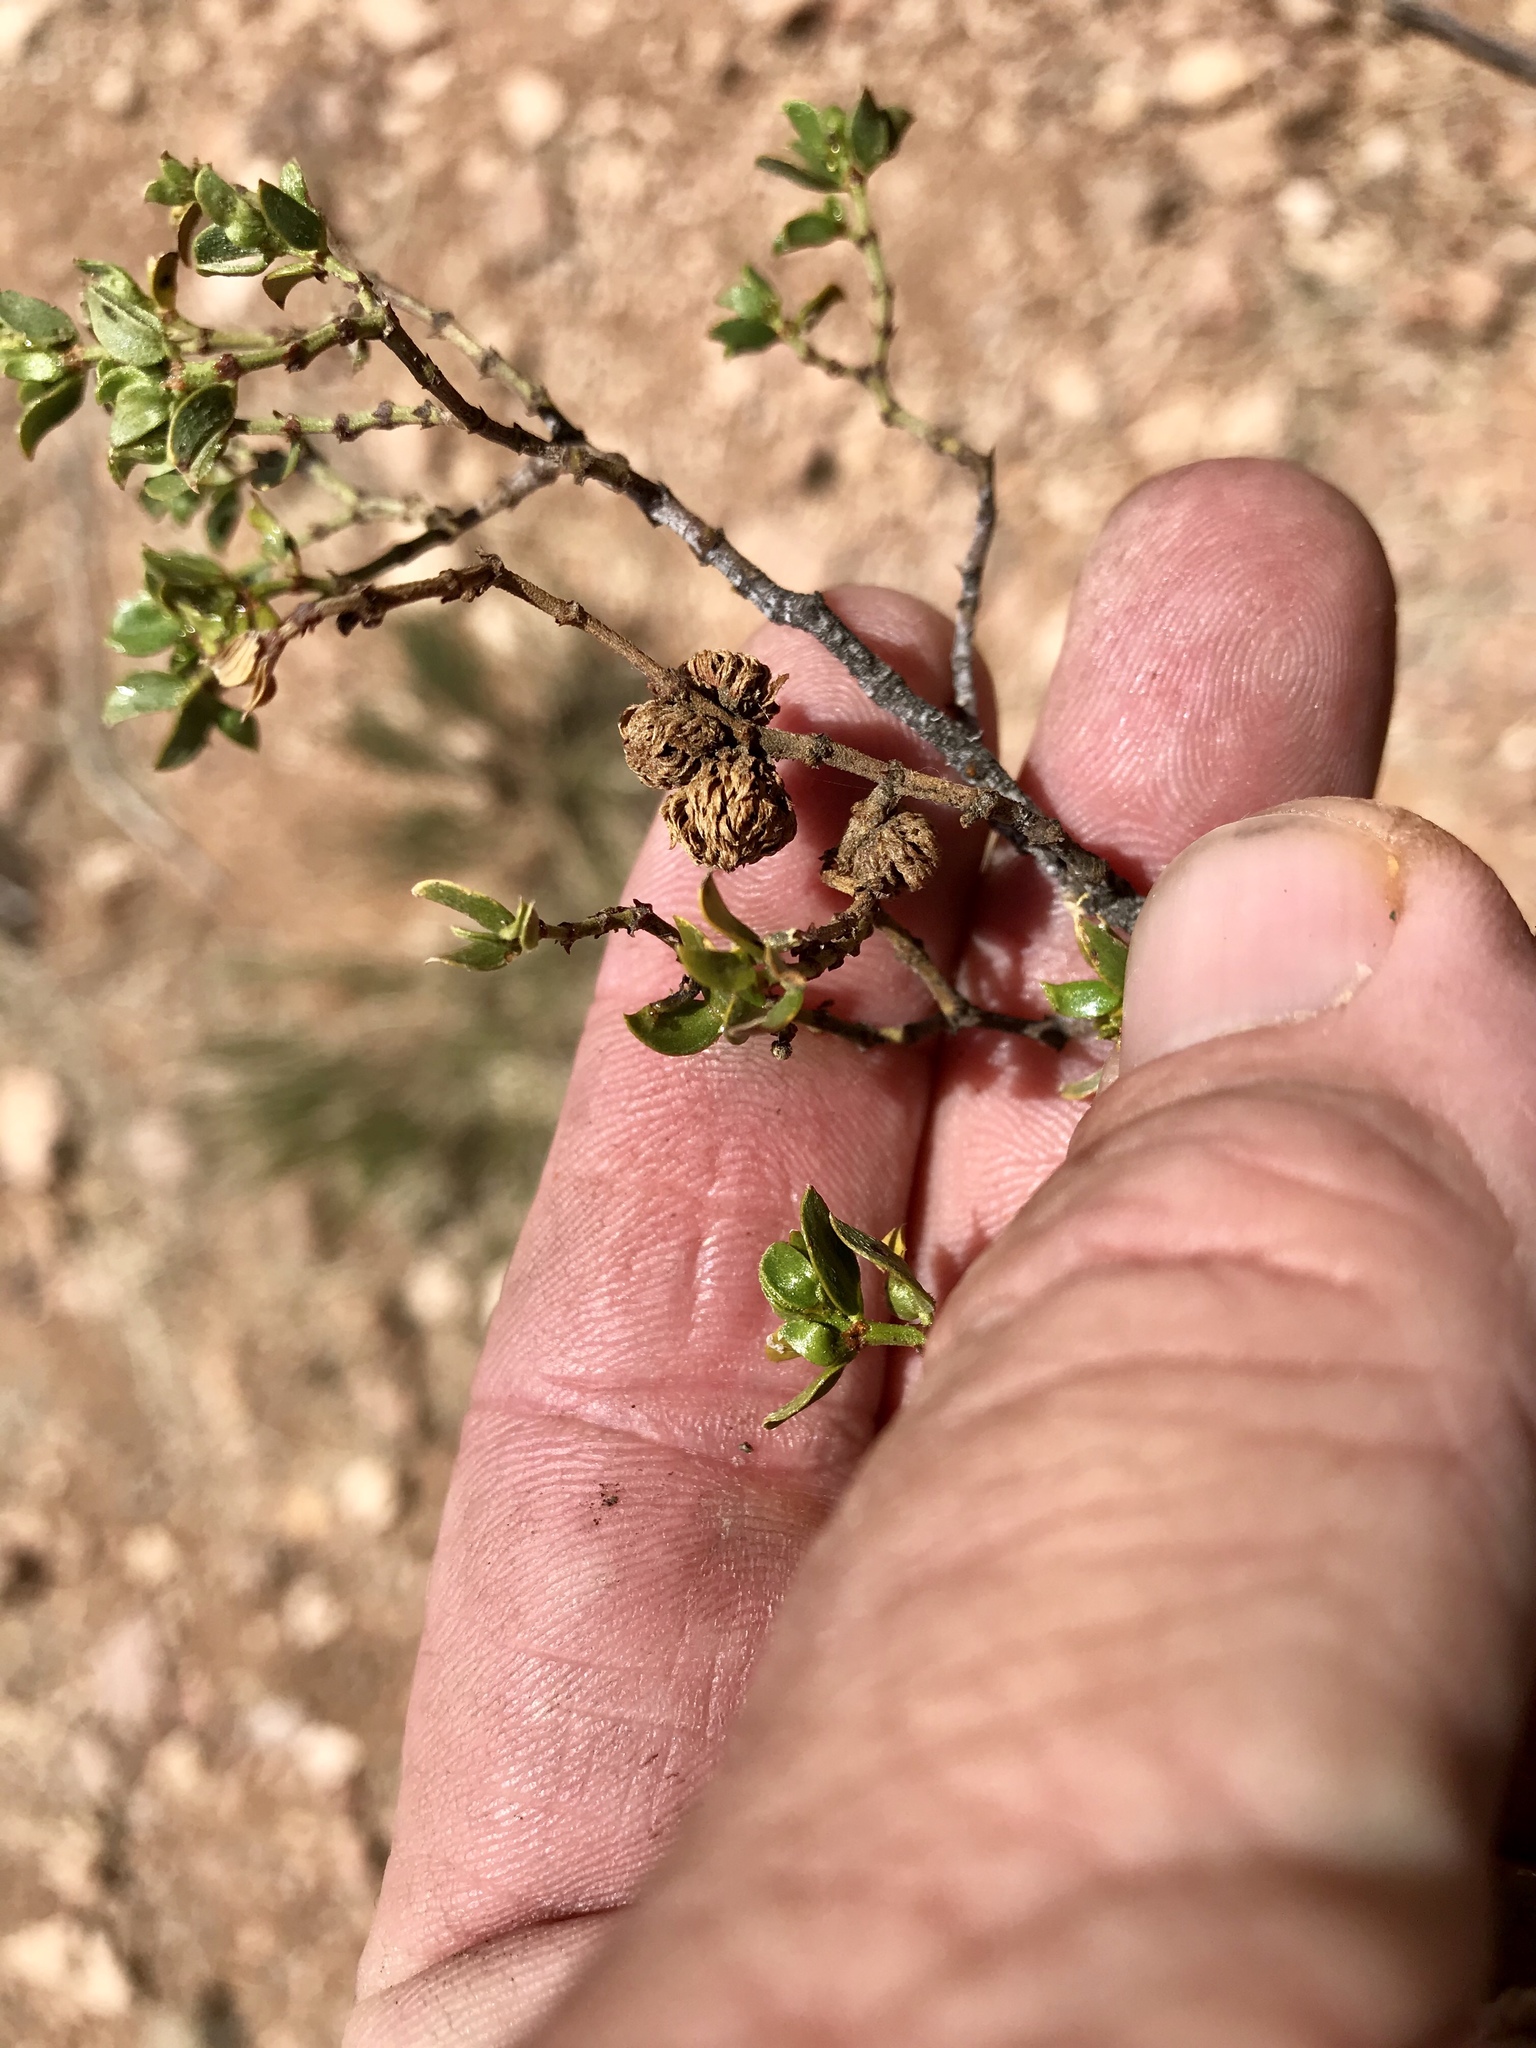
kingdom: Animalia
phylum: Arthropoda
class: Insecta
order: Diptera
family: Cecidomyiidae
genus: Asphondylia
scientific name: Asphondylia foliosa
